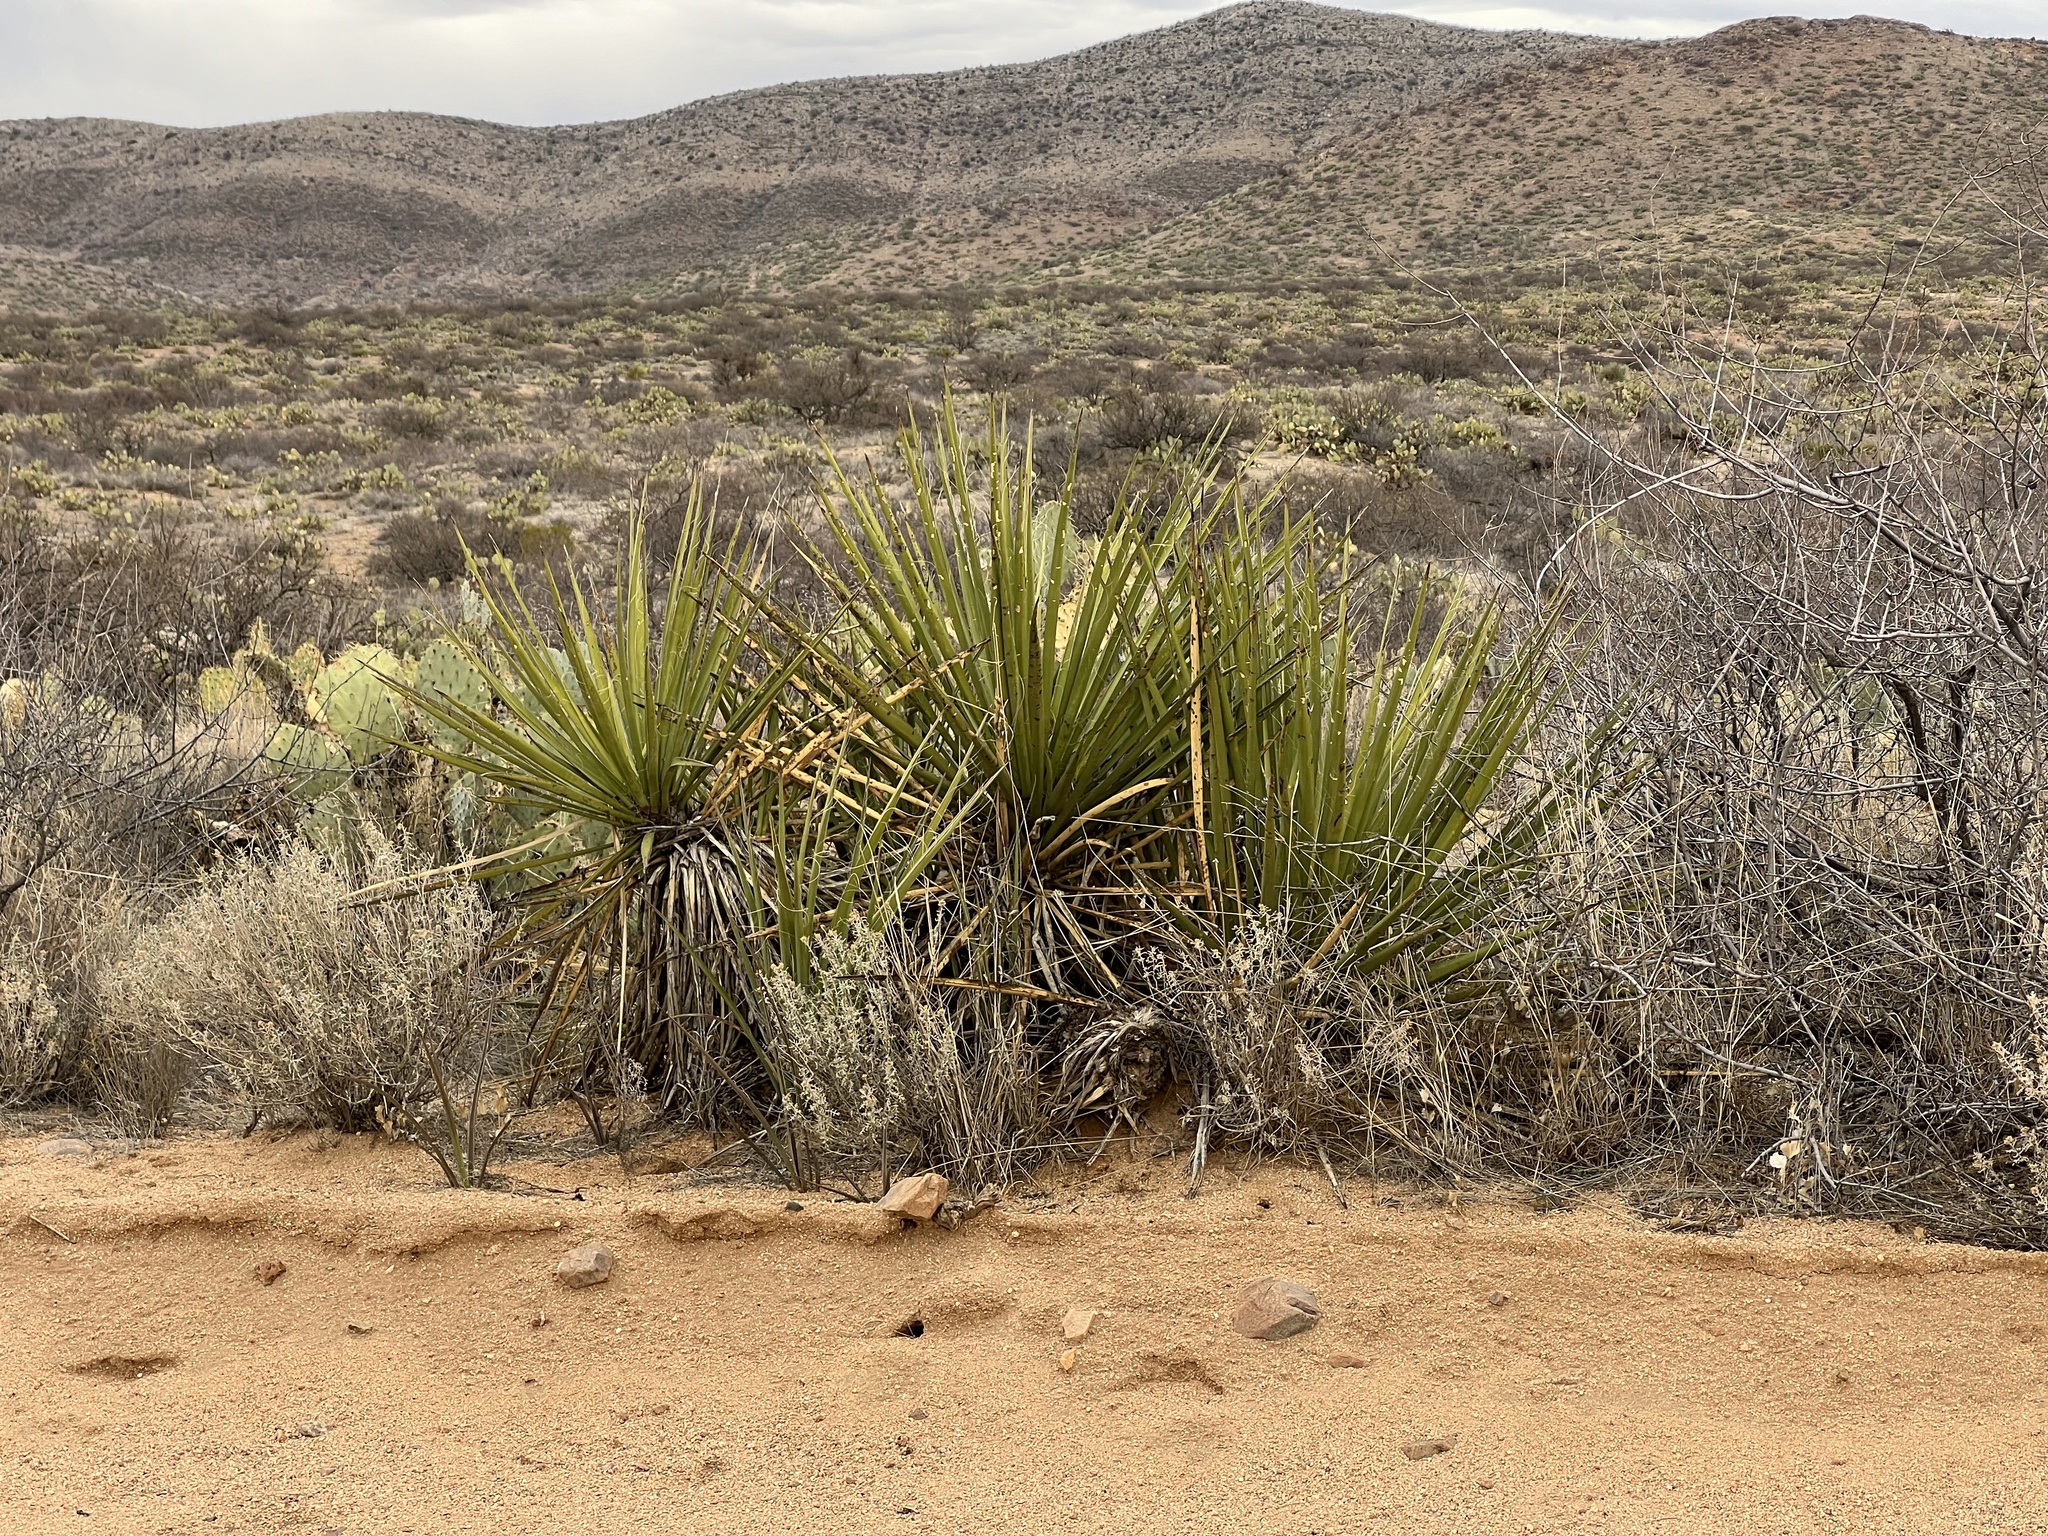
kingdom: Plantae
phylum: Tracheophyta
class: Liliopsida
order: Asparagales
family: Asparagaceae
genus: Yucca
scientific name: Yucca baccata
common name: Banana yucca
